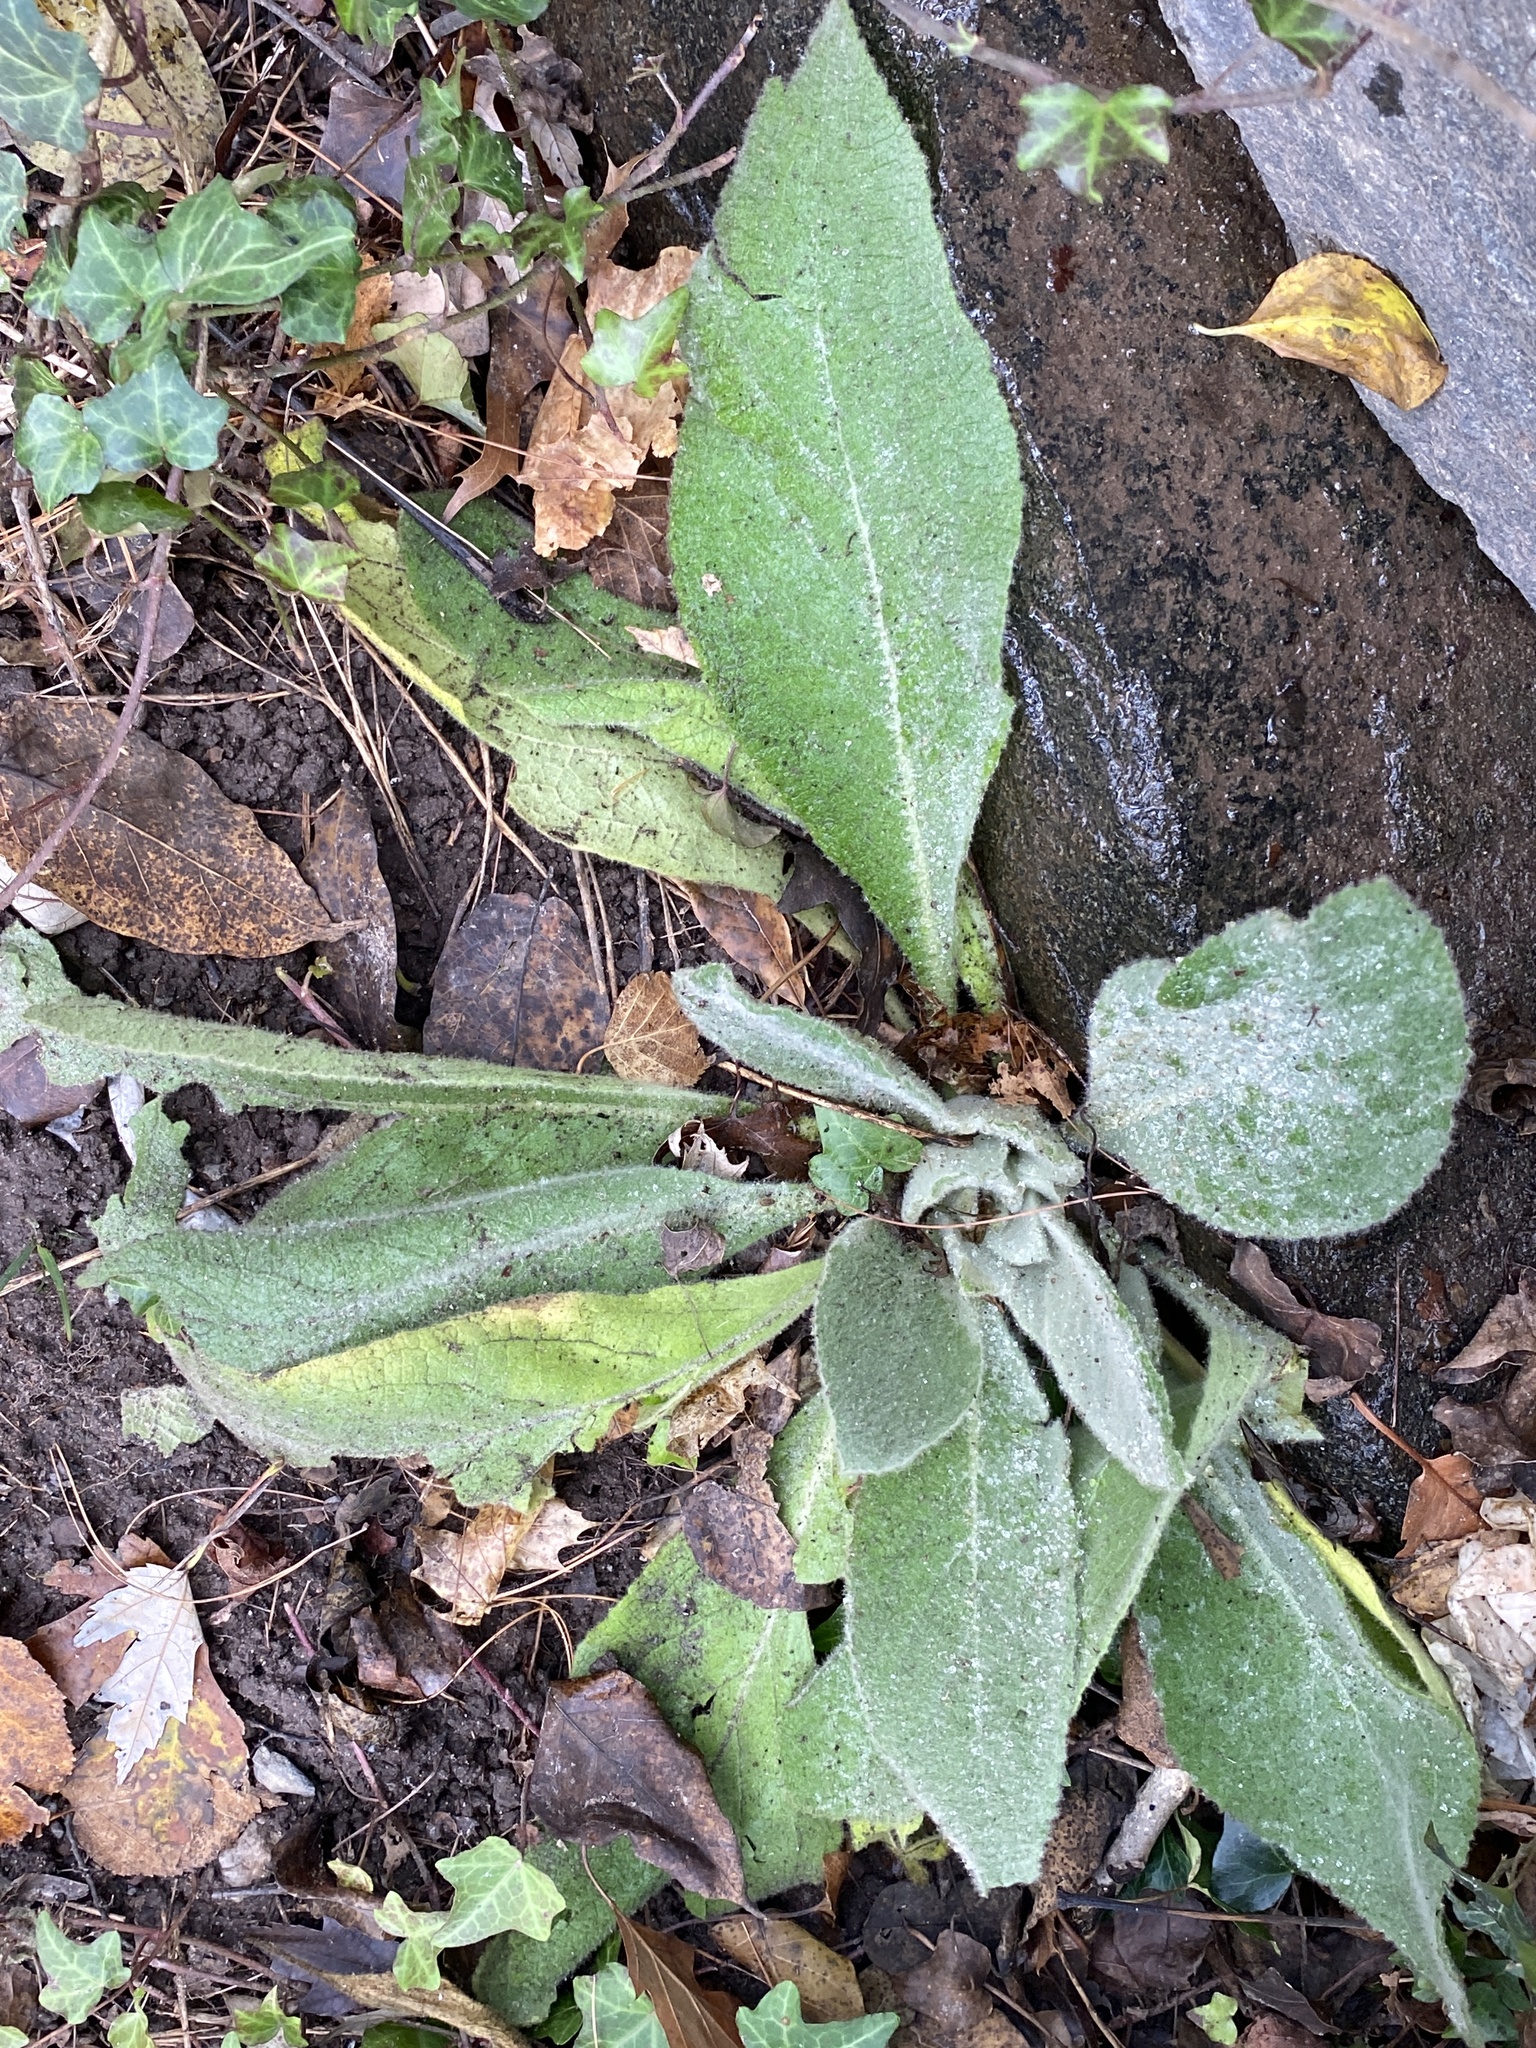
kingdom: Plantae
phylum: Tracheophyta
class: Magnoliopsida
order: Lamiales
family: Scrophulariaceae
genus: Verbascum
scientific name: Verbascum thapsus
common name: Common mullein
